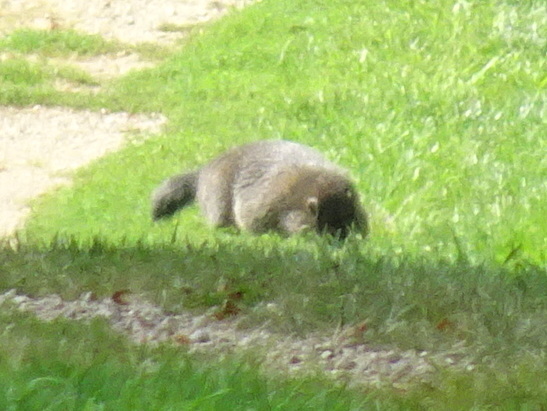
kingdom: Animalia
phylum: Chordata
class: Mammalia
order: Rodentia
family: Sciuridae
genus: Marmota
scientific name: Marmota monax
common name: Groundhog
